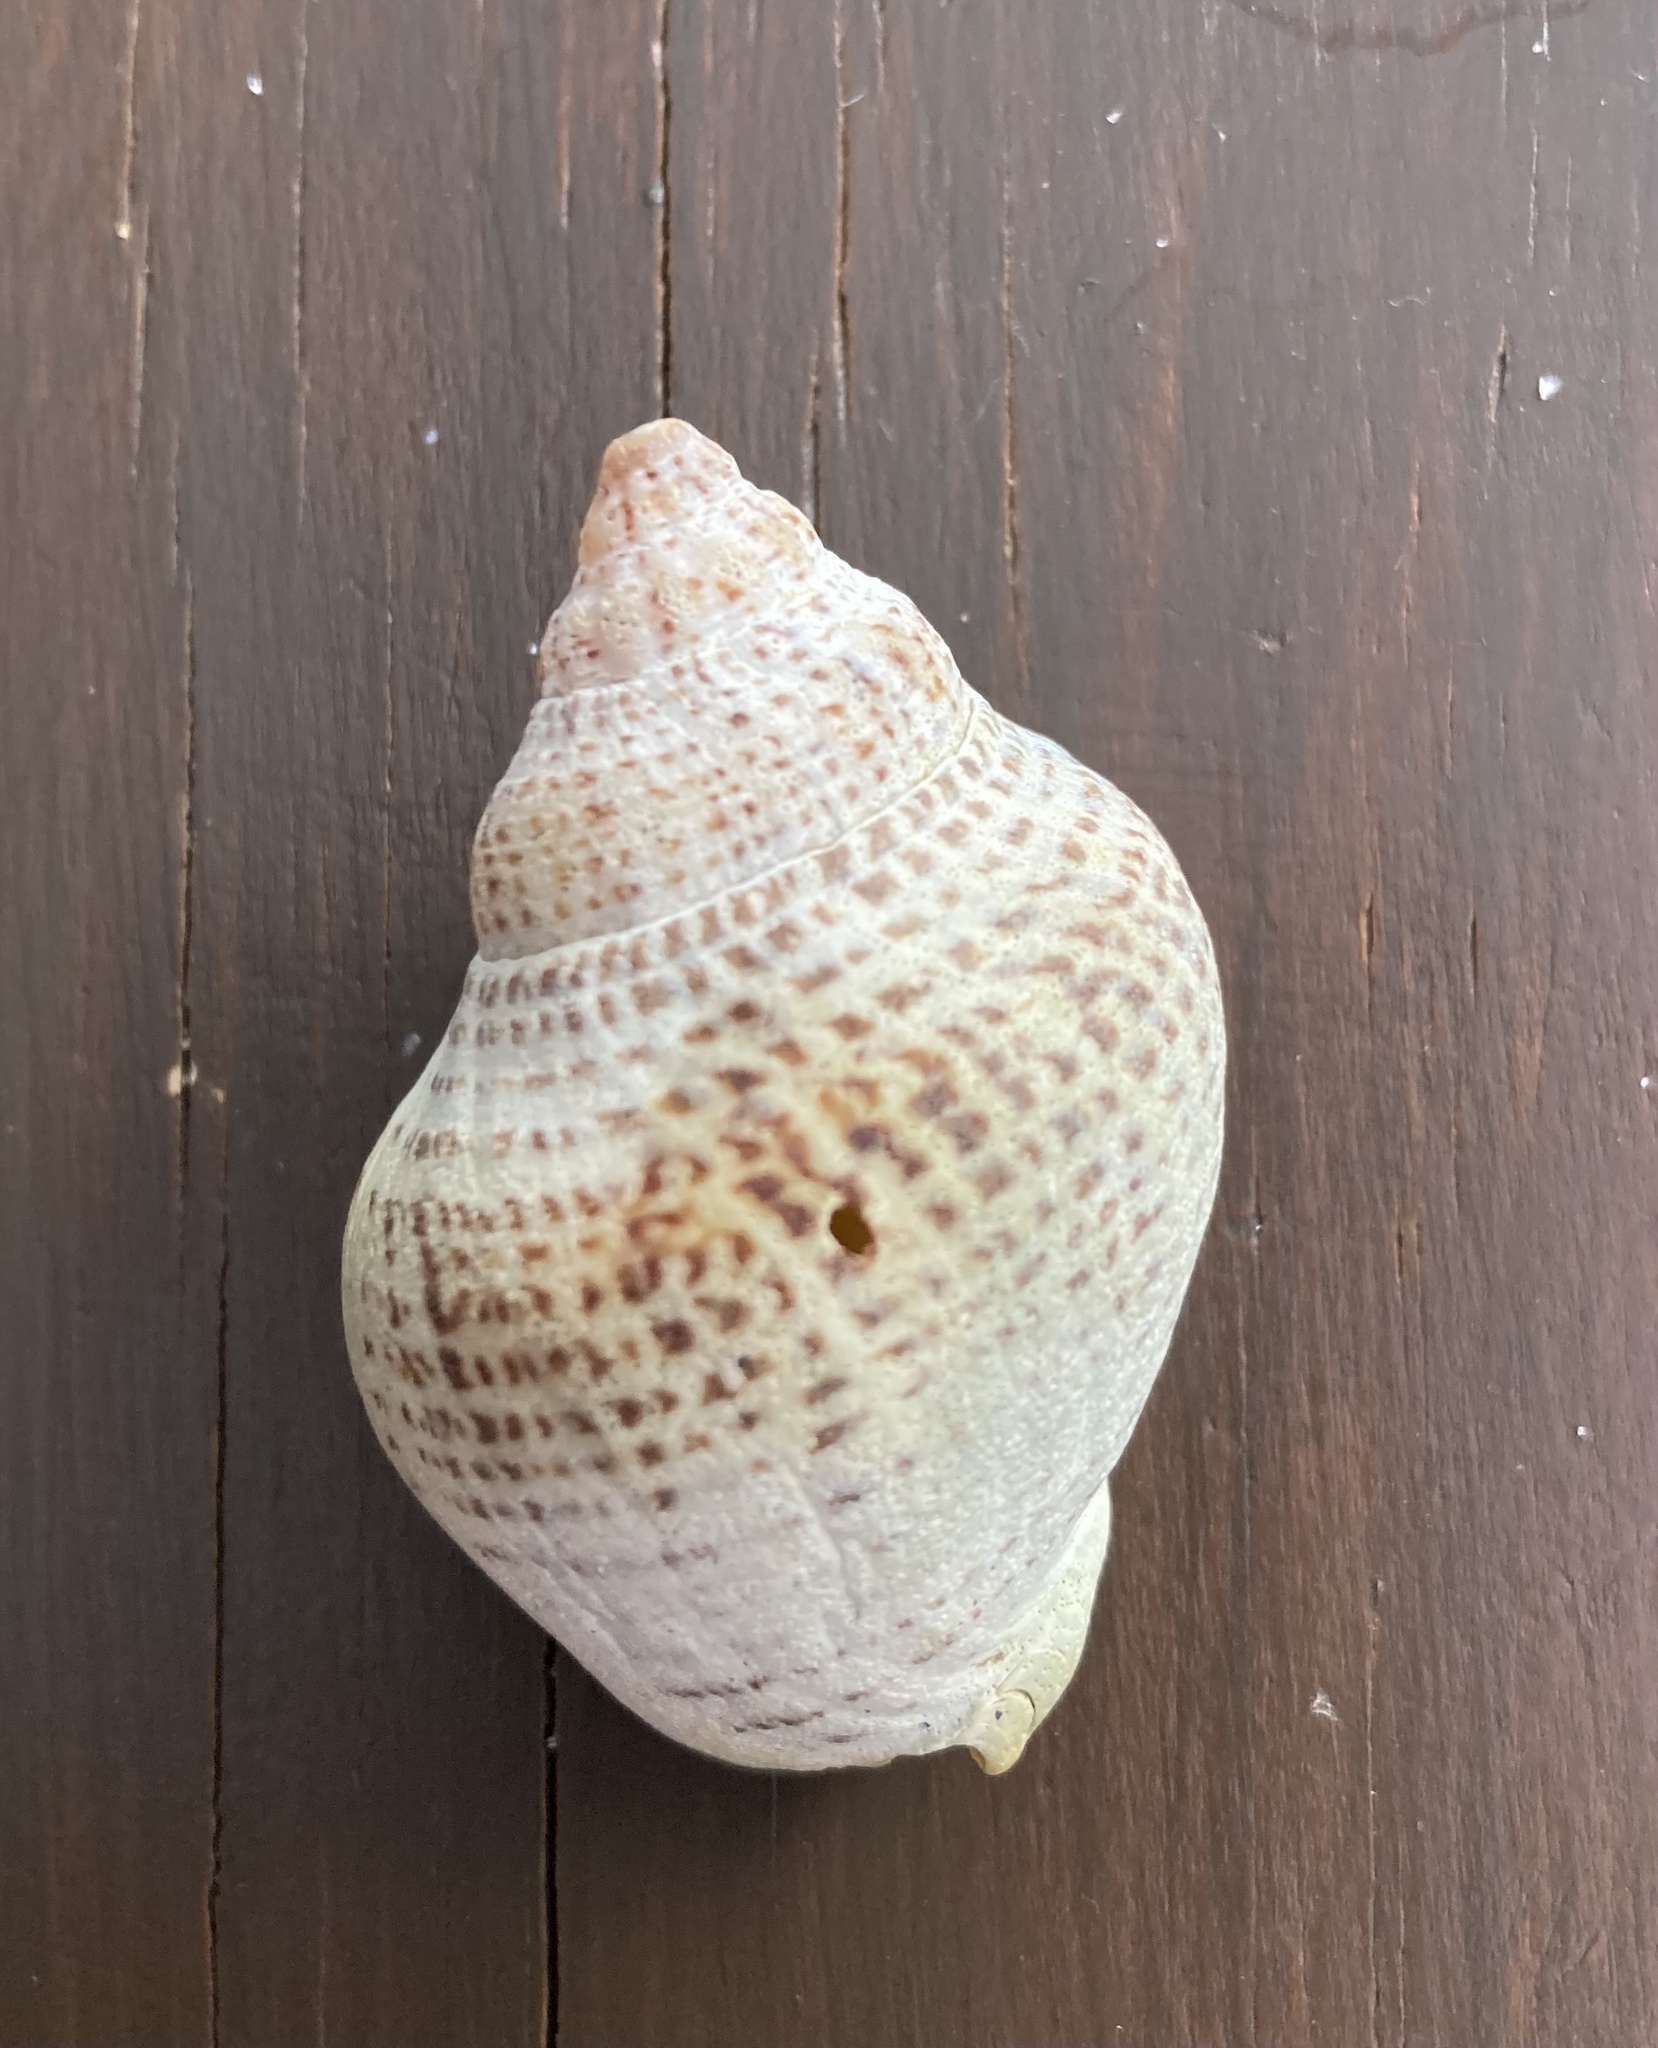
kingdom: Animalia
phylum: Mollusca
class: Gastropoda
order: Neogastropoda
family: Cominellidae
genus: Cominella
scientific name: Cominella adspersa
